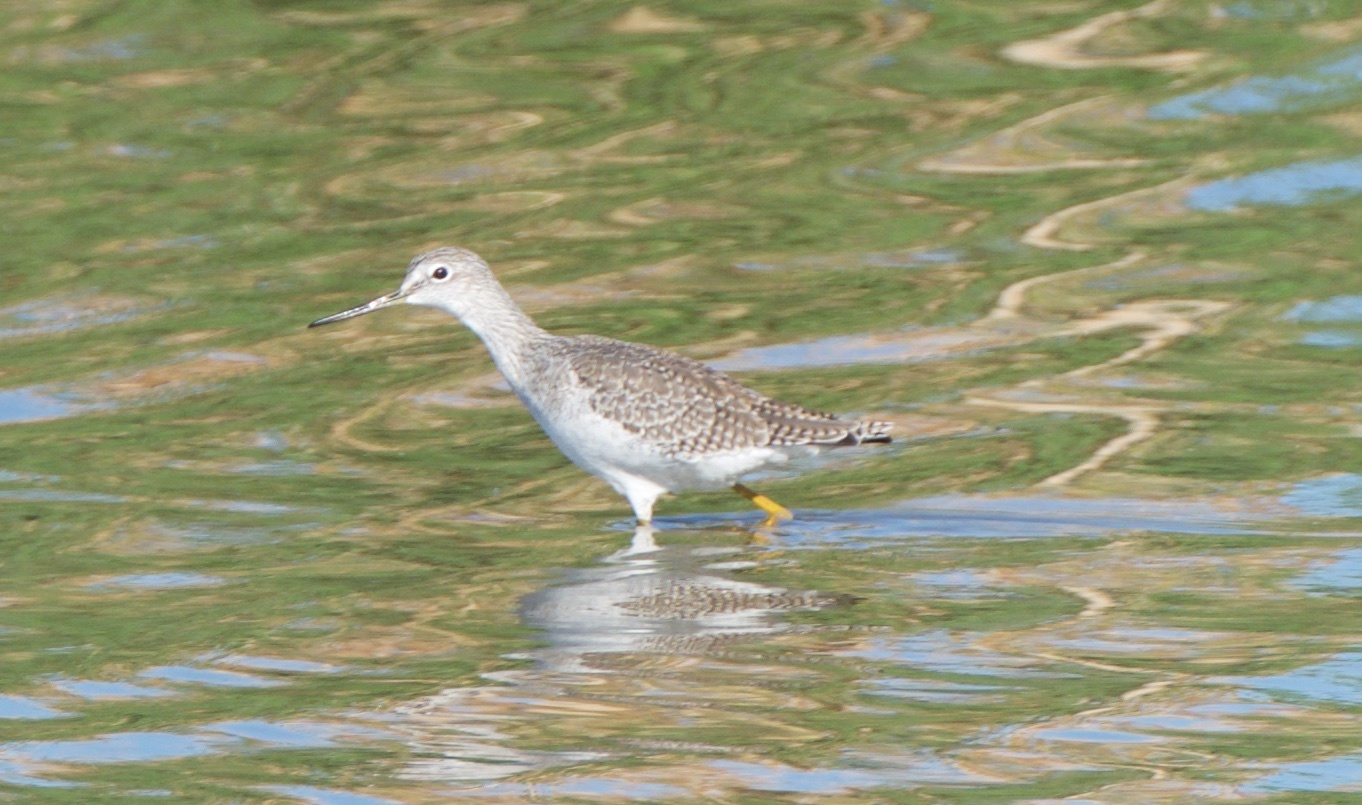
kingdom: Animalia
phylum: Chordata
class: Aves
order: Charadriiformes
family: Scolopacidae
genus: Tringa
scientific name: Tringa melanoleuca
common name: Greater yellowlegs
